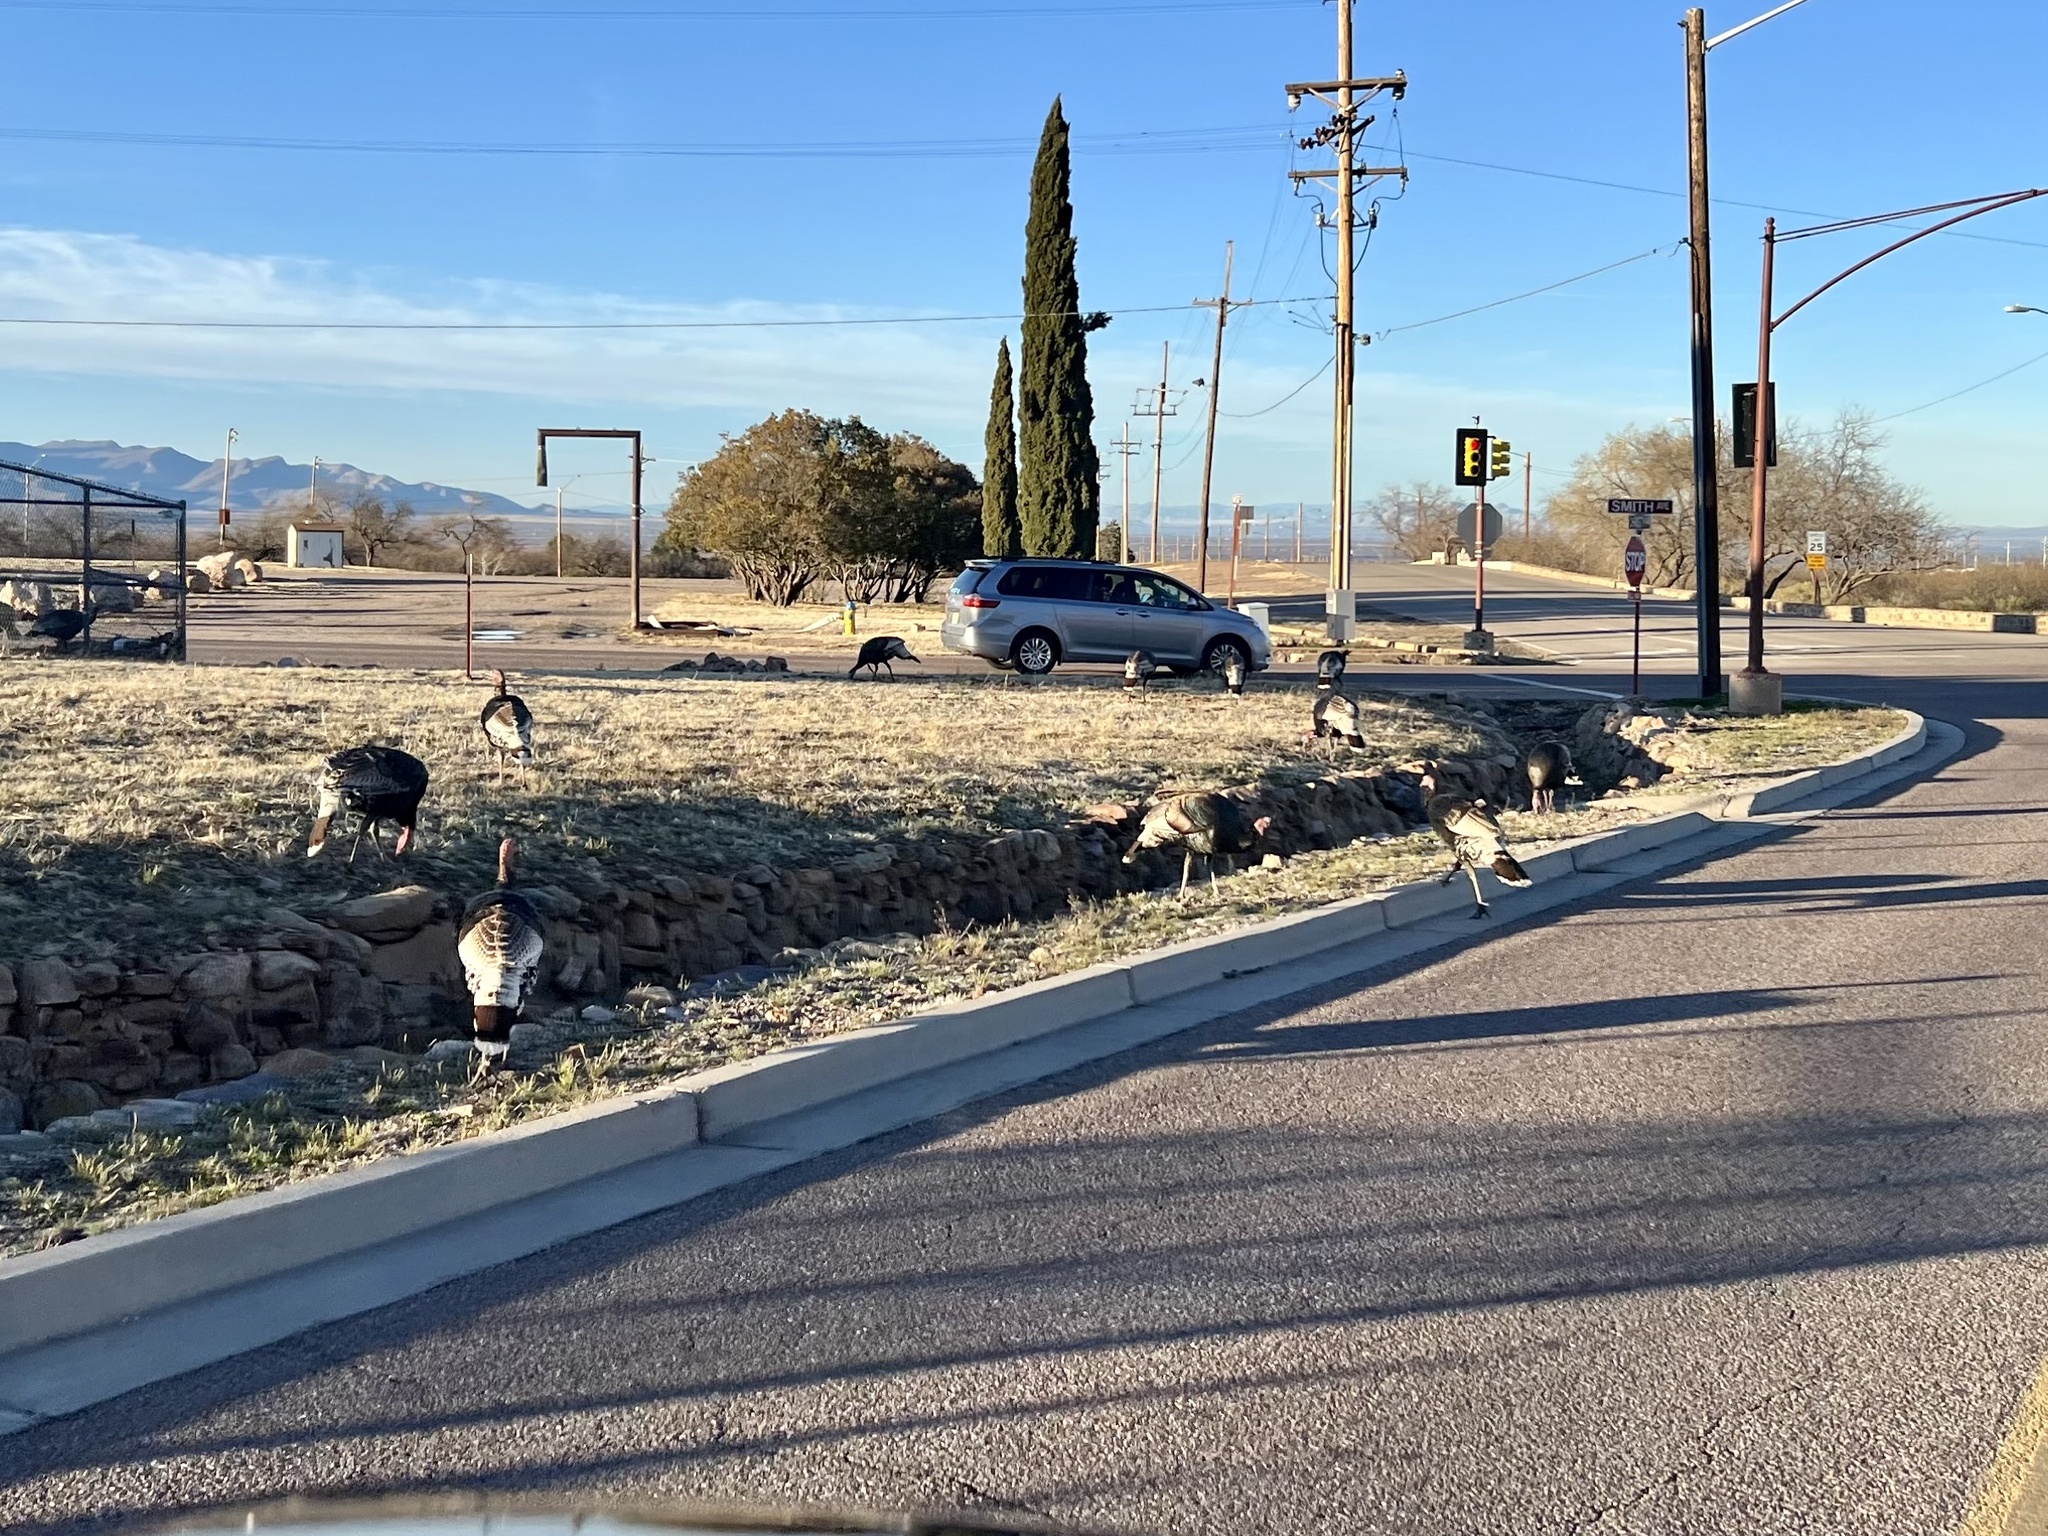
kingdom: Animalia
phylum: Chordata
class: Aves
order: Galliformes
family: Phasianidae
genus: Meleagris
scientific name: Meleagris gallopavo
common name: Wild turkey
